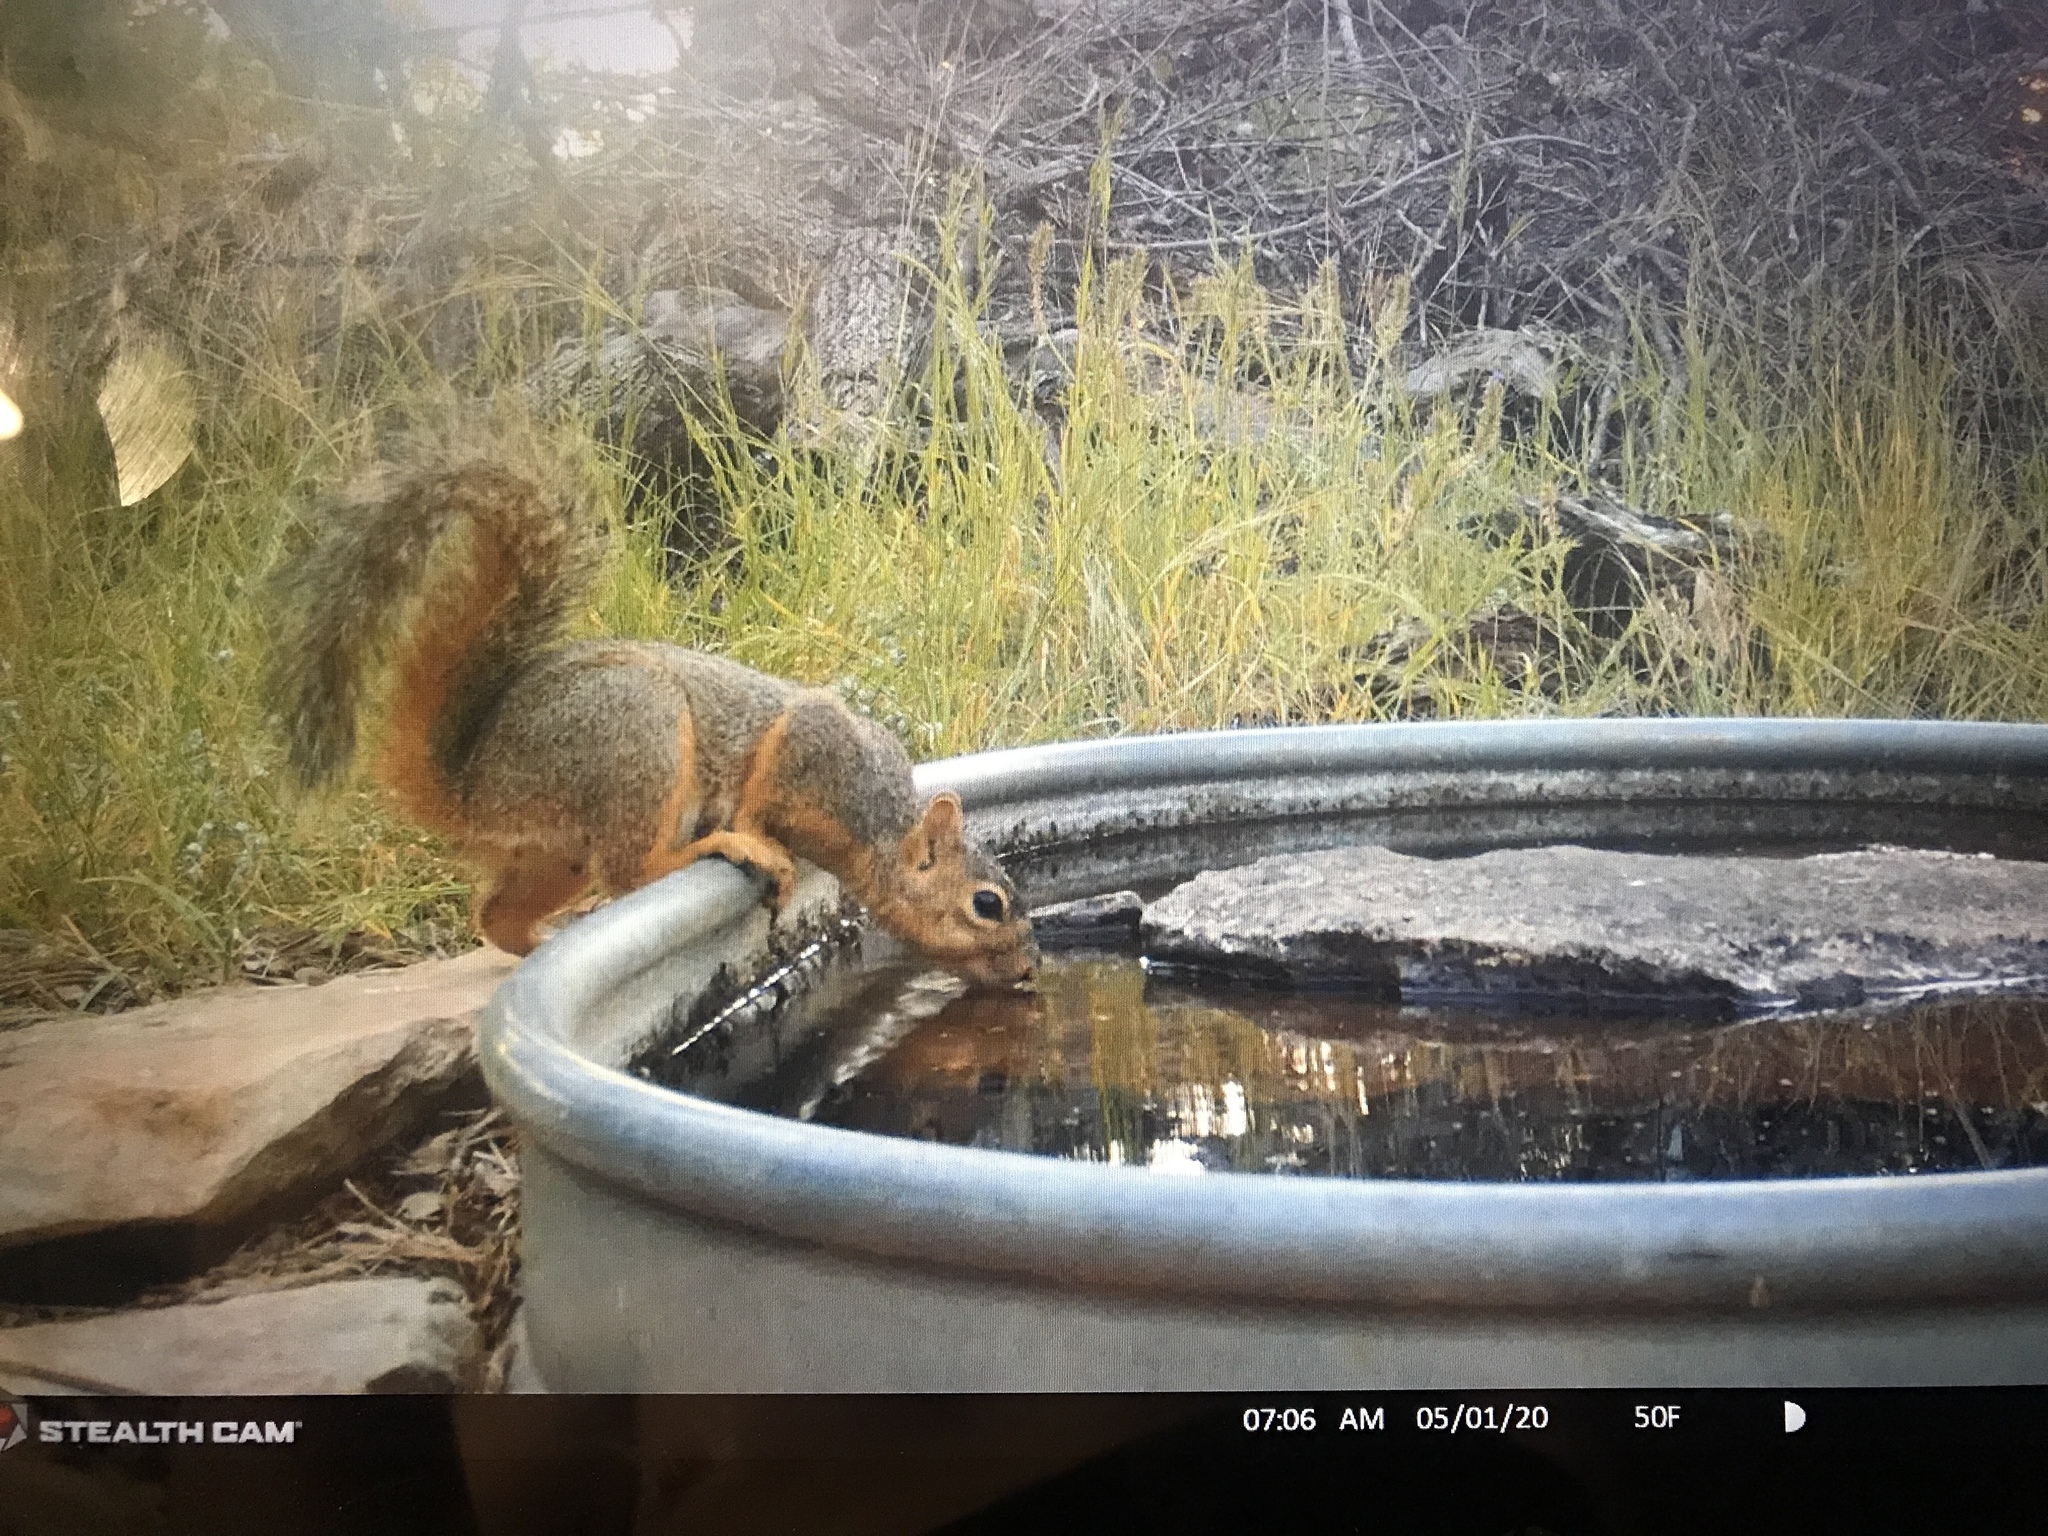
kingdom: Animalia
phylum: Chordata
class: Mammalia
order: Rodentia
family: Sciuridae
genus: Sciurus
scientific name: Sciurus niger
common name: Fox squirrel
